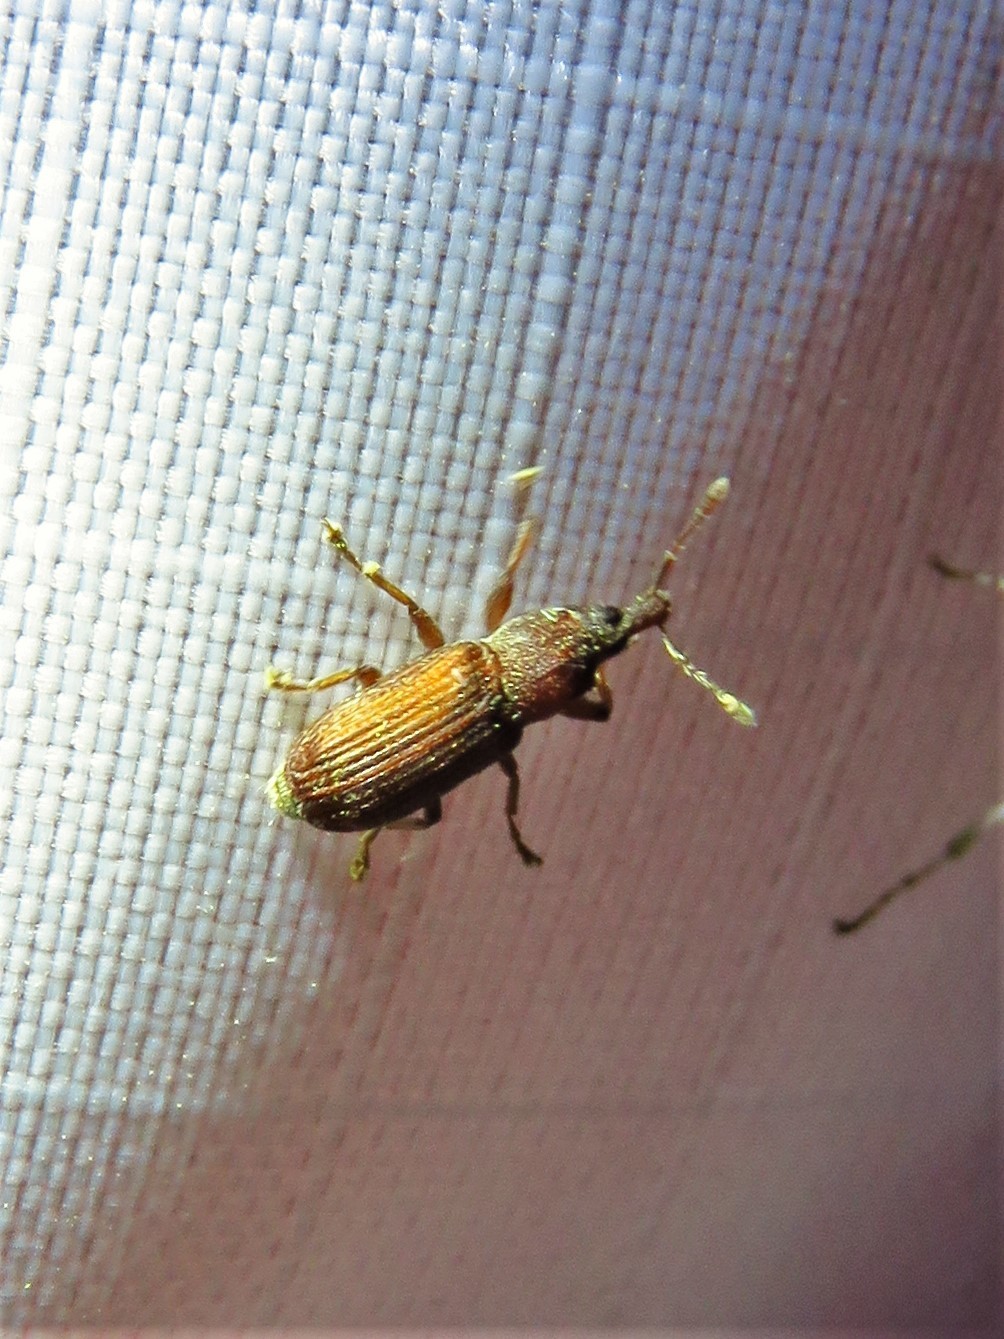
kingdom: Animalia
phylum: Arthropoda
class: Insecta
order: Coleoptera
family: Curculionidae
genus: Magdalis
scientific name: Magdalis armicollis
